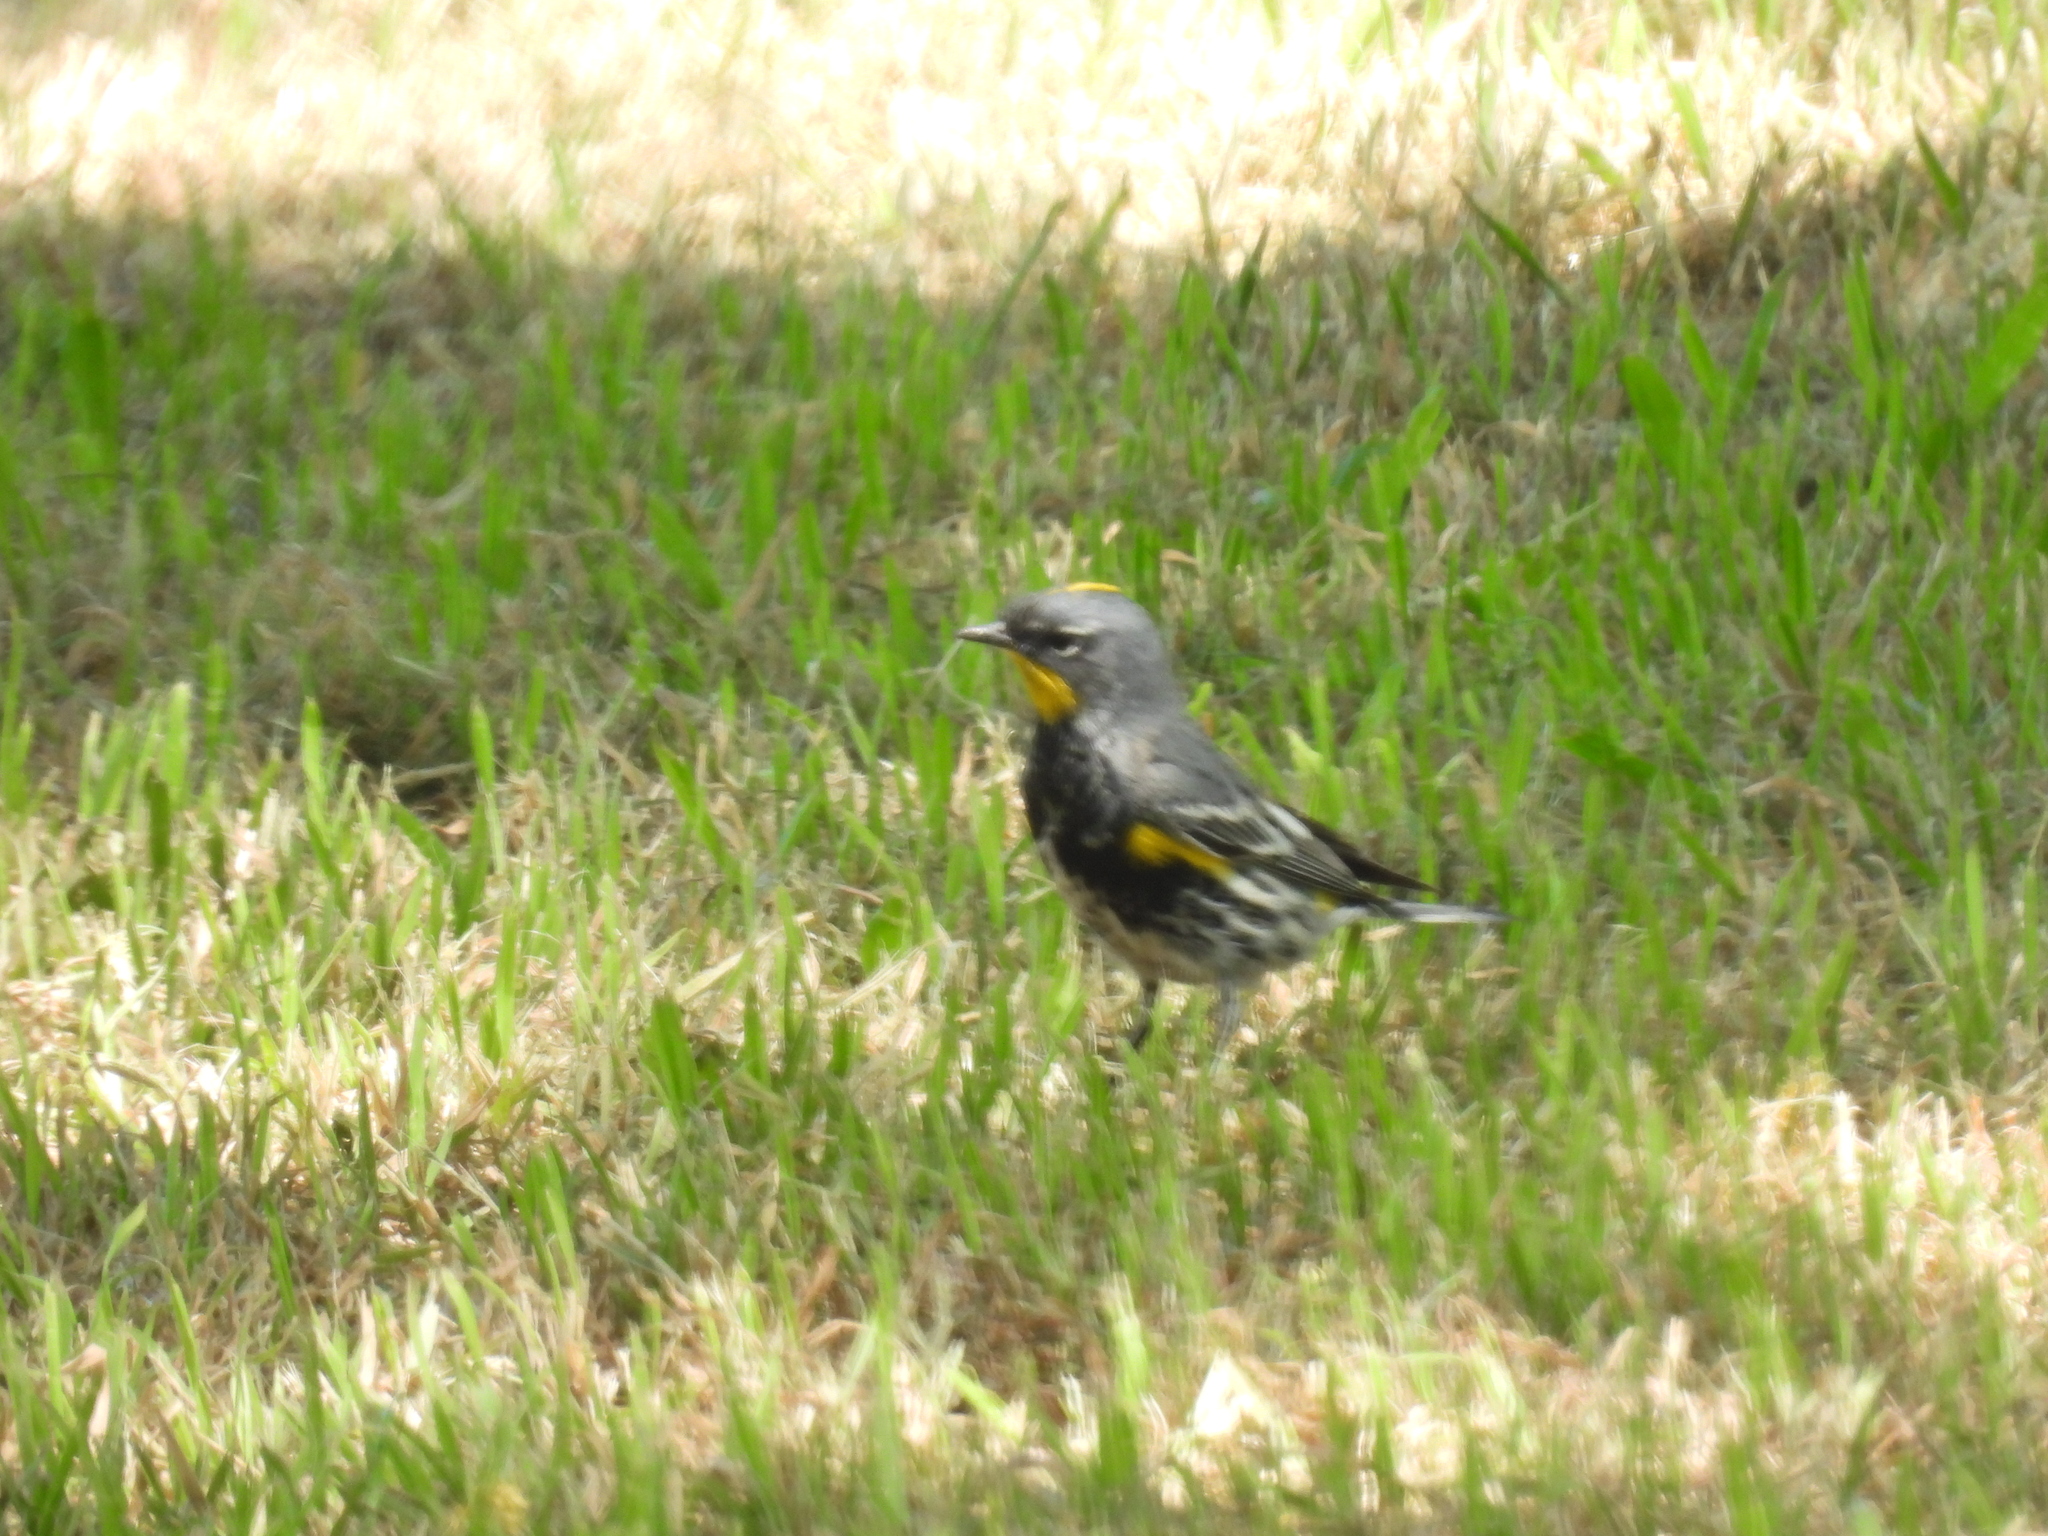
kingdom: Animalia
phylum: Chordata
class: Aves
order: Passeriformes
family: Parulidae
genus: Setophaga
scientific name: Setophaga auduboni
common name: Audubon's warbler
